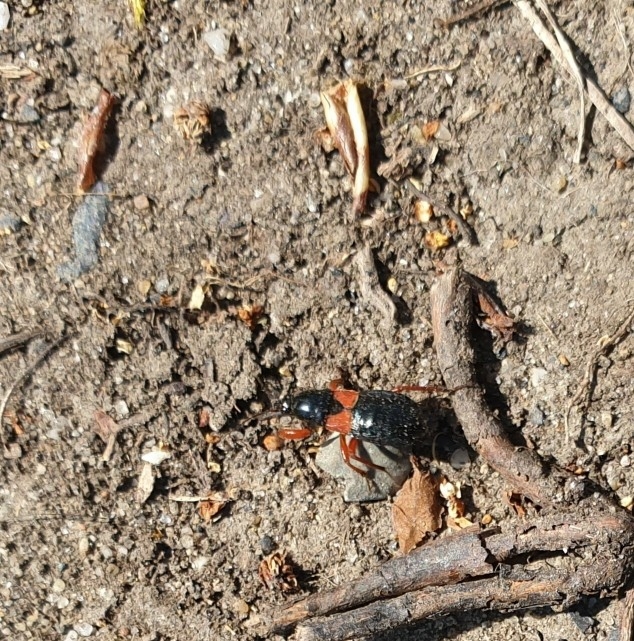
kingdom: Animalia
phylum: Arthropoda
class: Insecta
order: Hemiptera
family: Nabidae
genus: Prostemma
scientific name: Prostemma guttula
